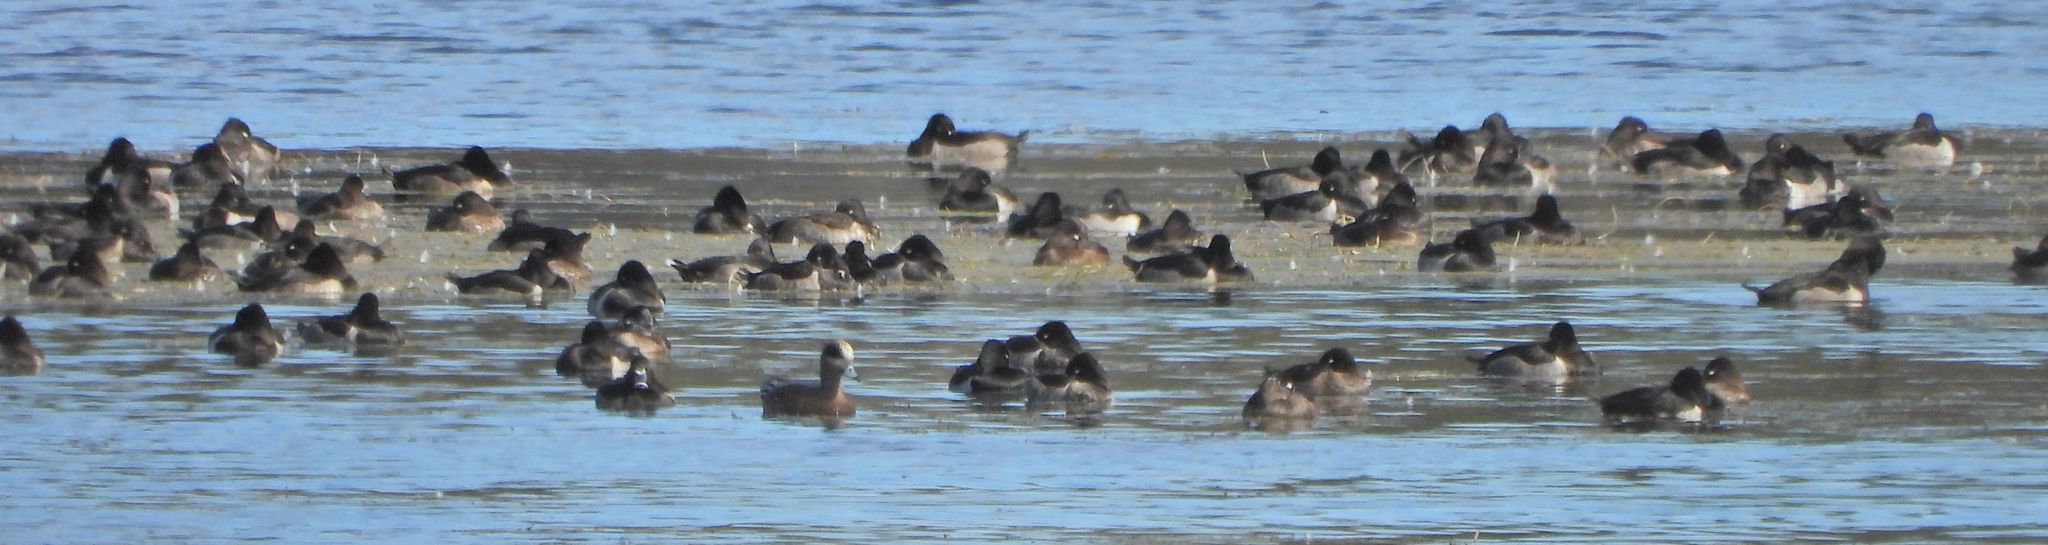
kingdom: Animalia
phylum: Chordata
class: Aves
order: Anseriformes
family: Anatidae
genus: Aythya
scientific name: Aythya collaris
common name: Ring-necked duck
